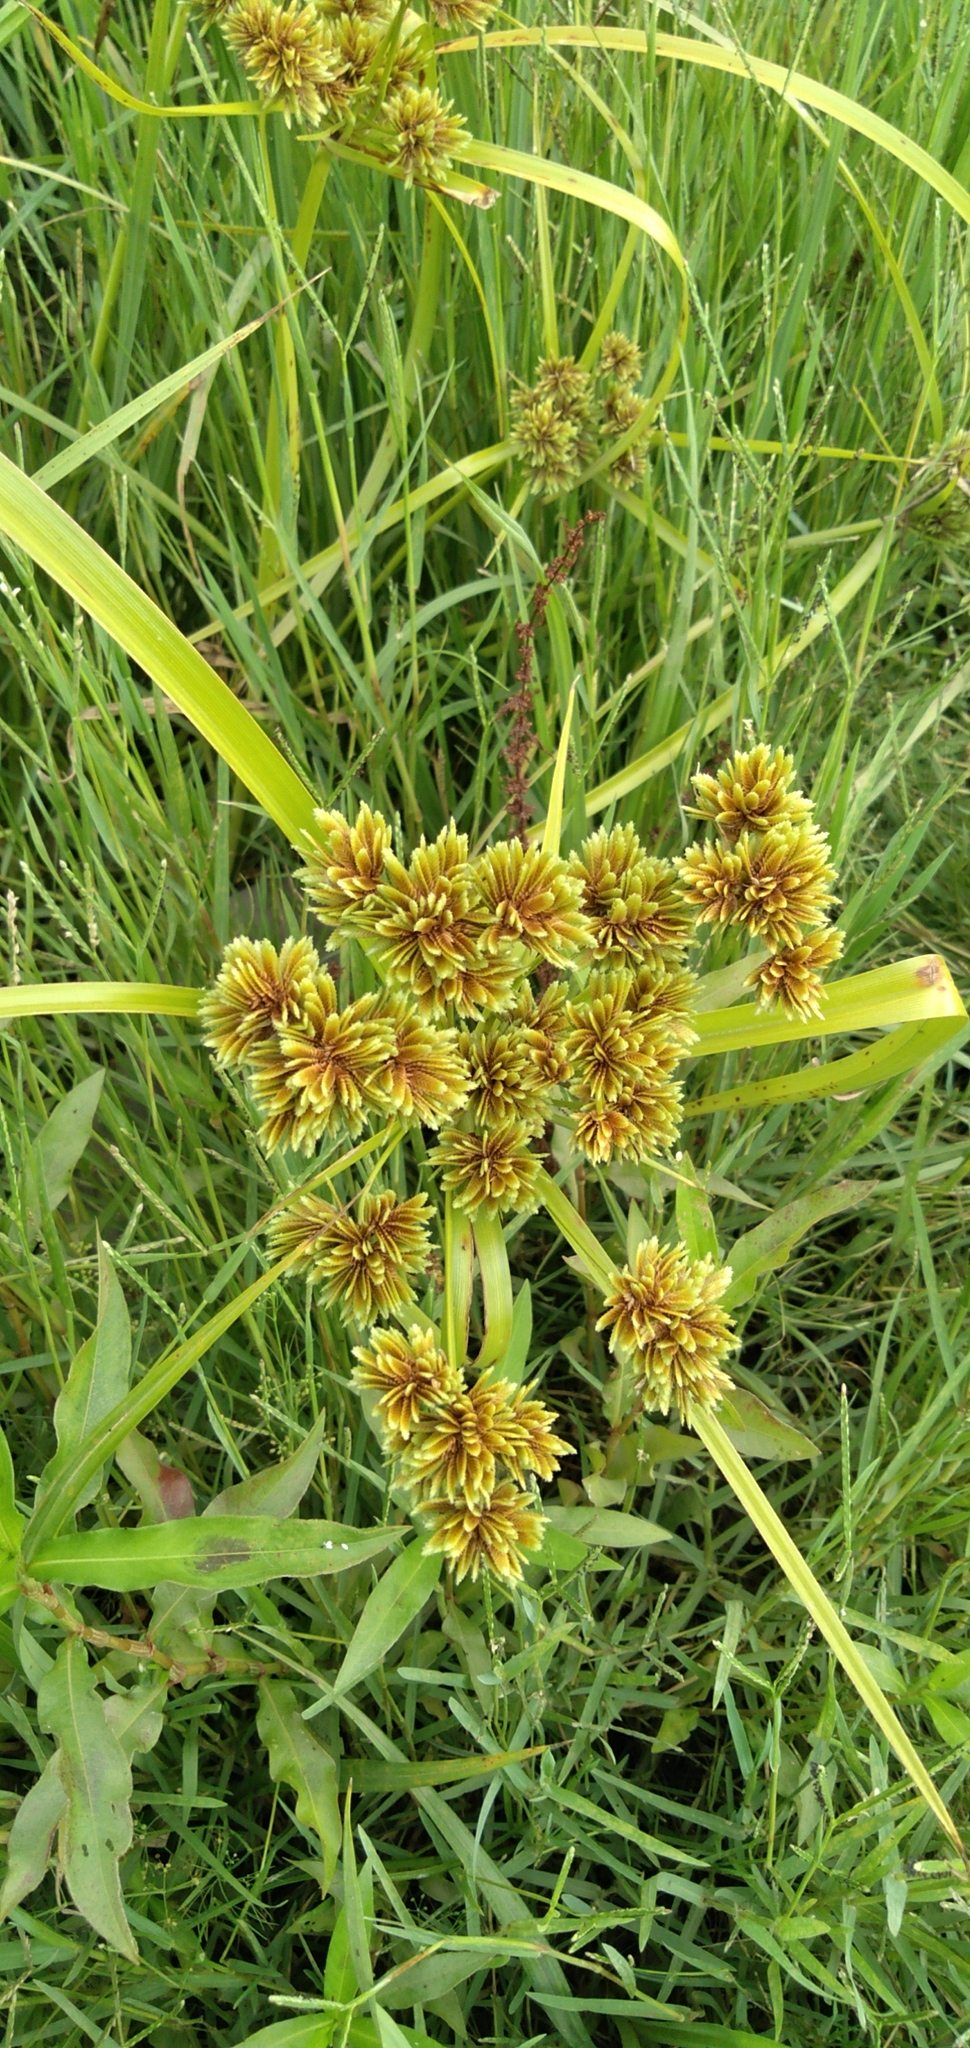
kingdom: Plantae
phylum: Tracheophyta
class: Liliopsida
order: Poales
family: Cyperaceae
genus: Cyperus
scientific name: Cyperus eragrostis
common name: Tall flatsedge
